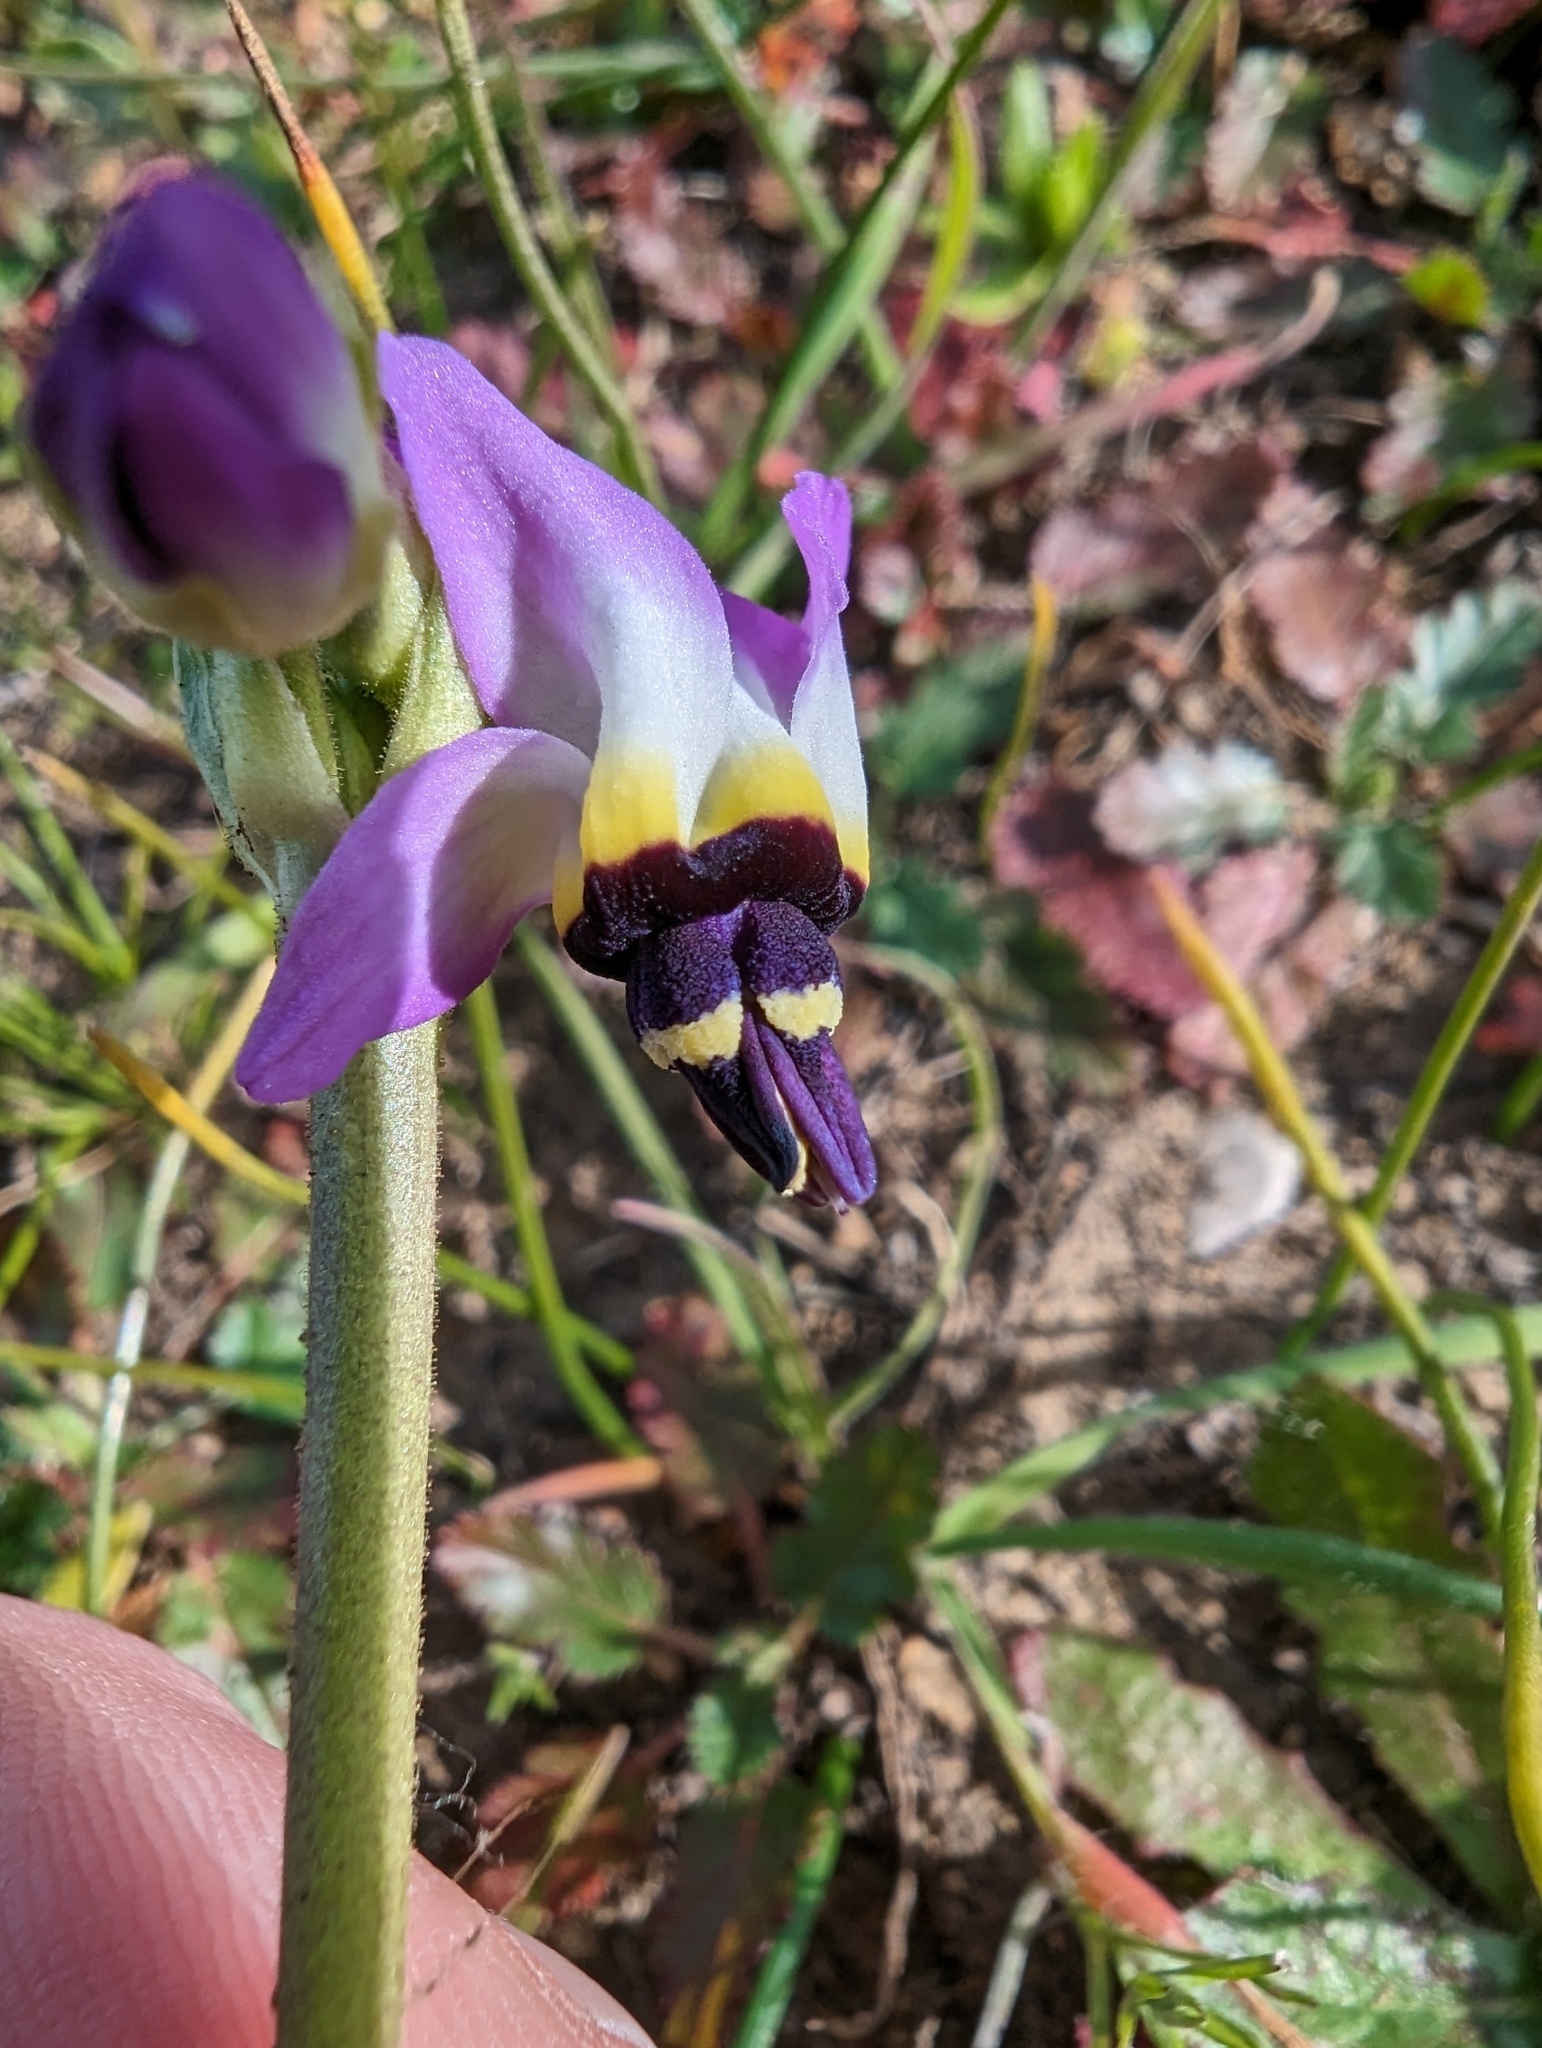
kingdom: Plantae
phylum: Tracheophyta
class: Magnoliopsida
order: Ericales
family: Primulaceae
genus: Dodecatheon
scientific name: Dodecatheon clevelandii
